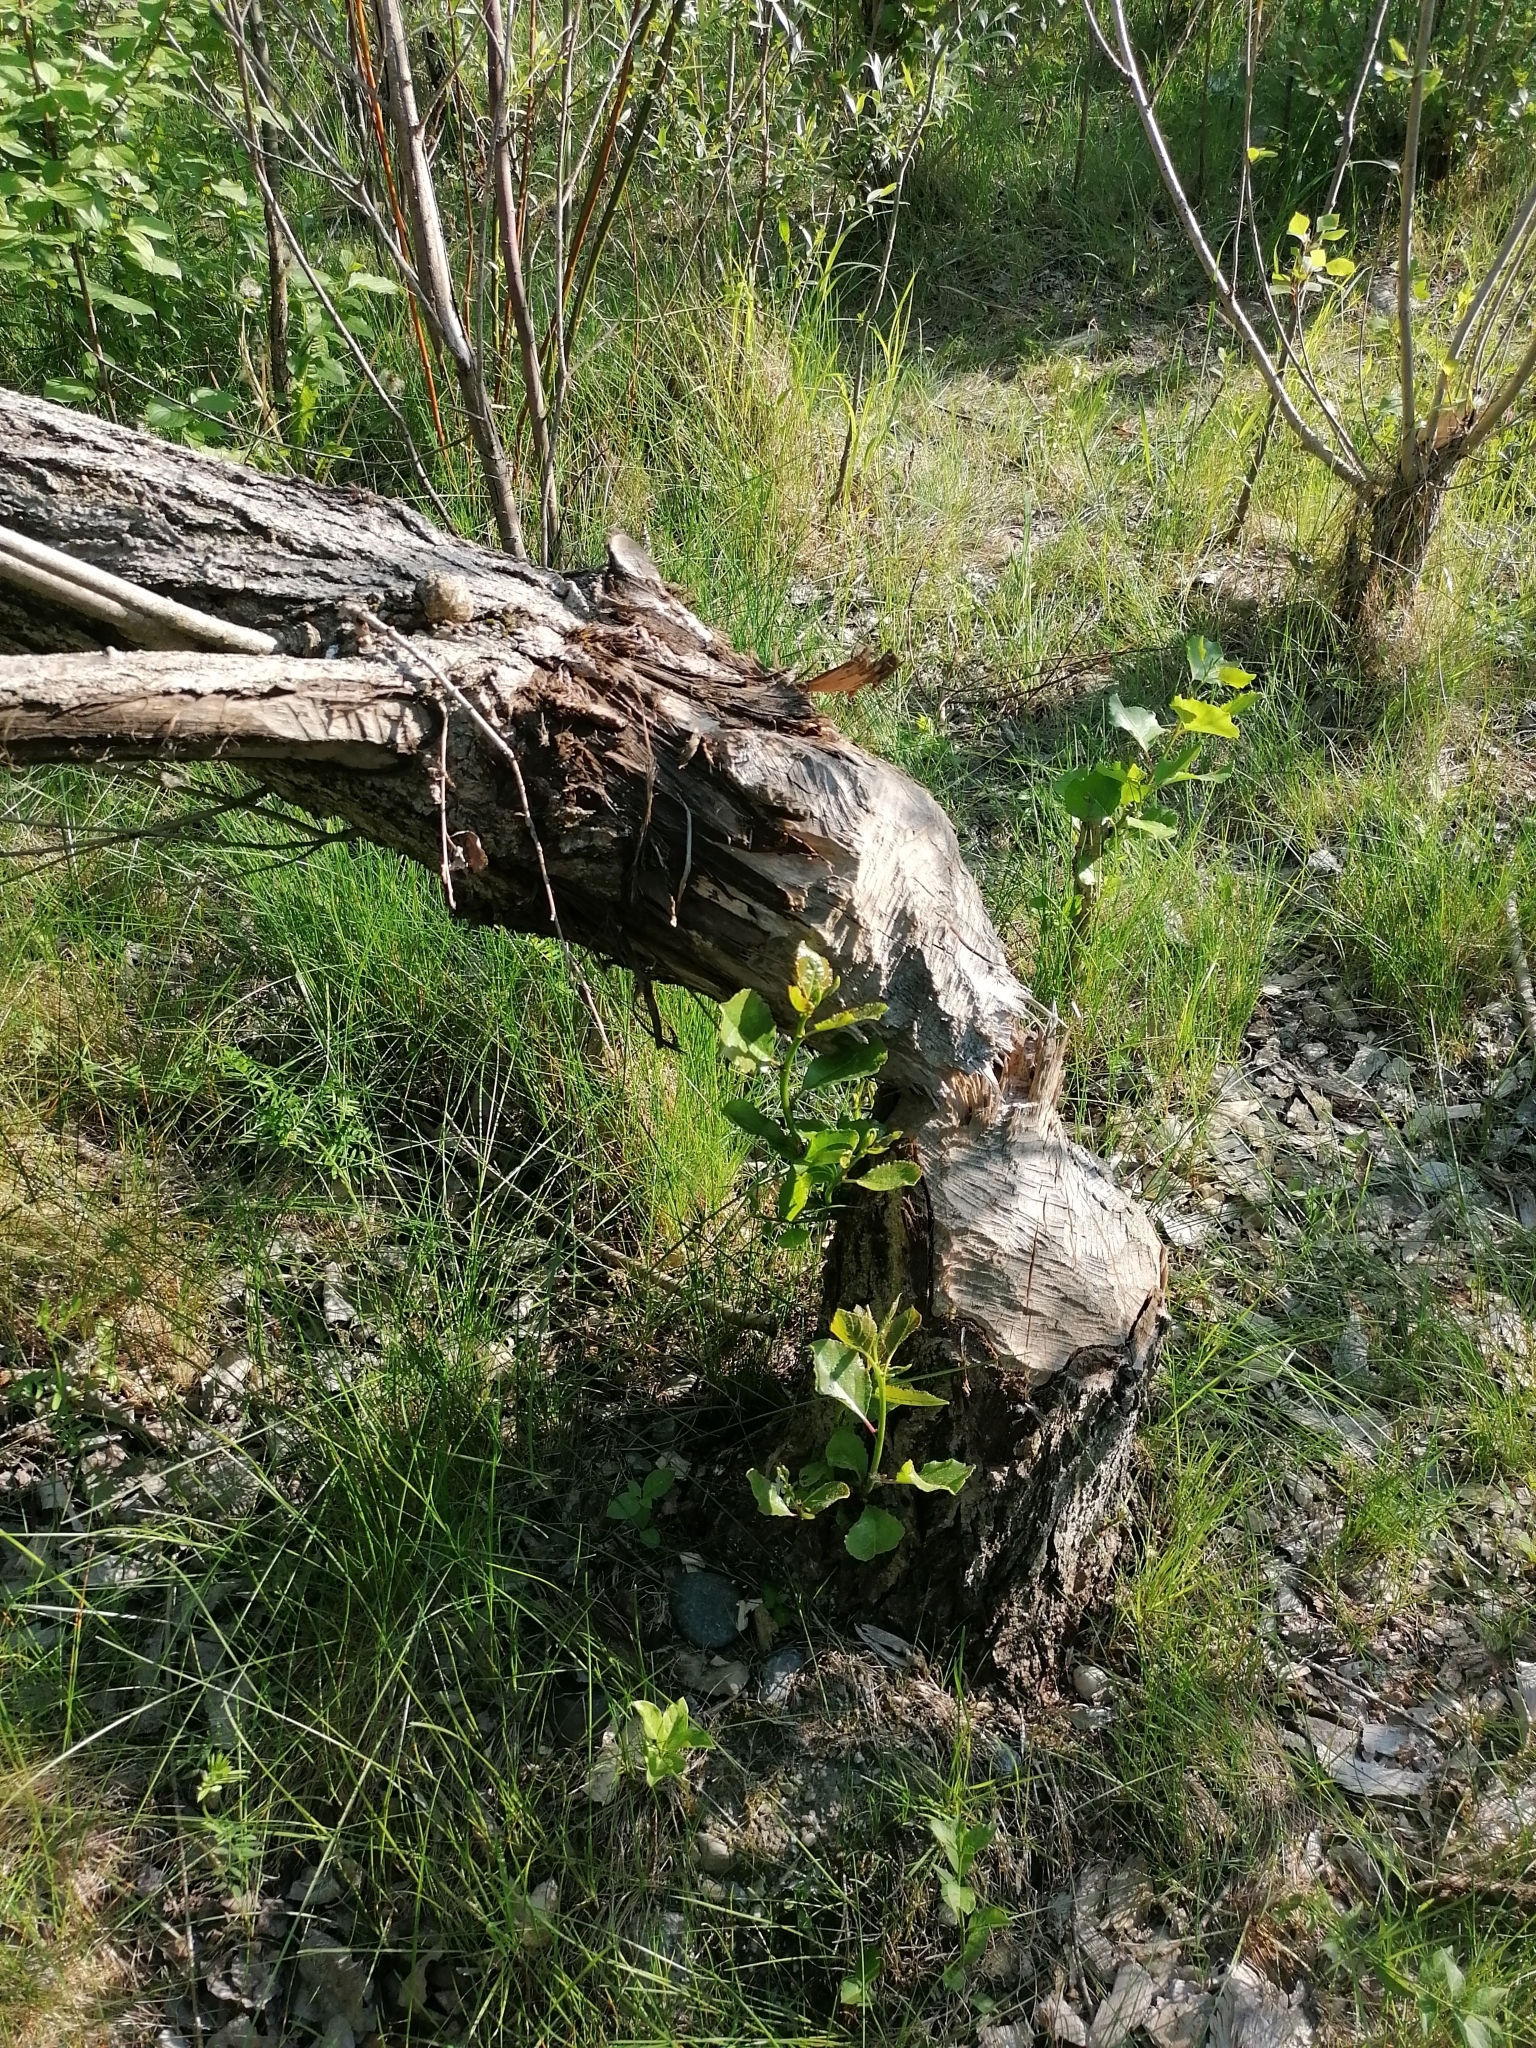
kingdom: Animalia
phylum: Chordata
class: Mammalia
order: Rodentia
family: Castoridae
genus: Castor
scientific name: Castor fiber
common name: Eurasian beaver
